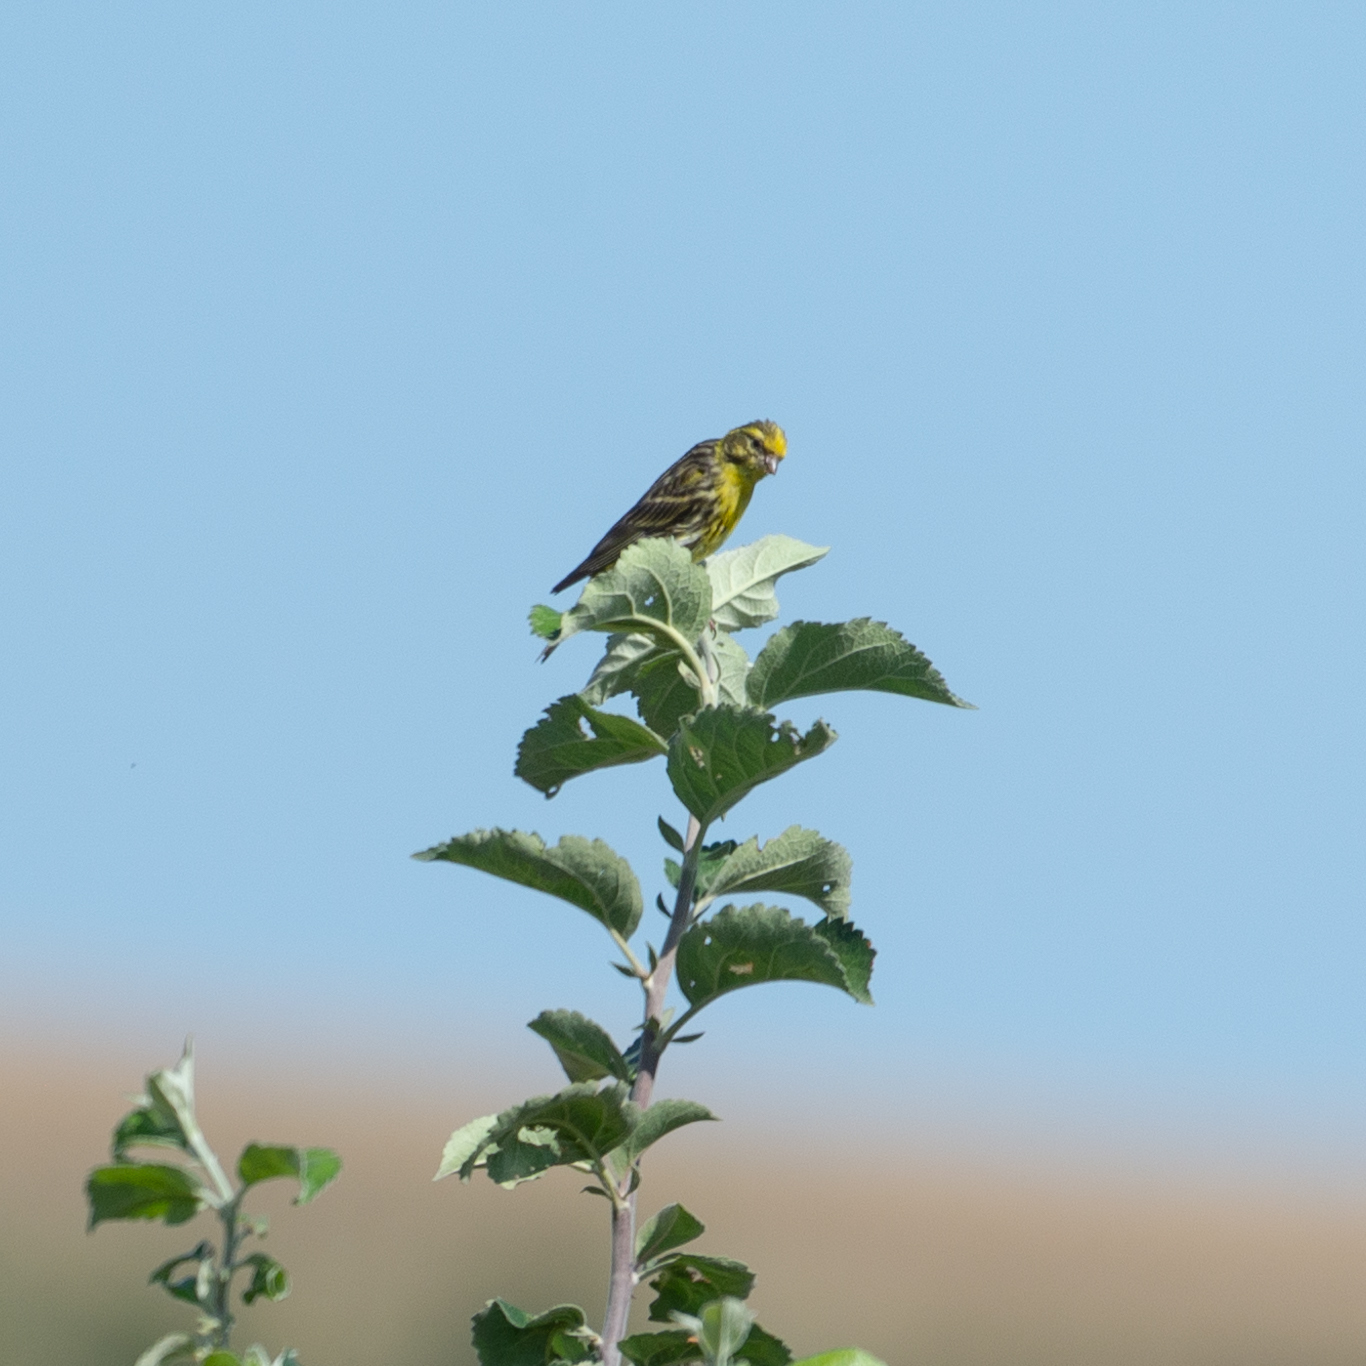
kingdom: Animalia
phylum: Chordata
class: Aves
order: Passeriformes
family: Fringillidae
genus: Serinus
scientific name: Serinus serinus
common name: European serin
